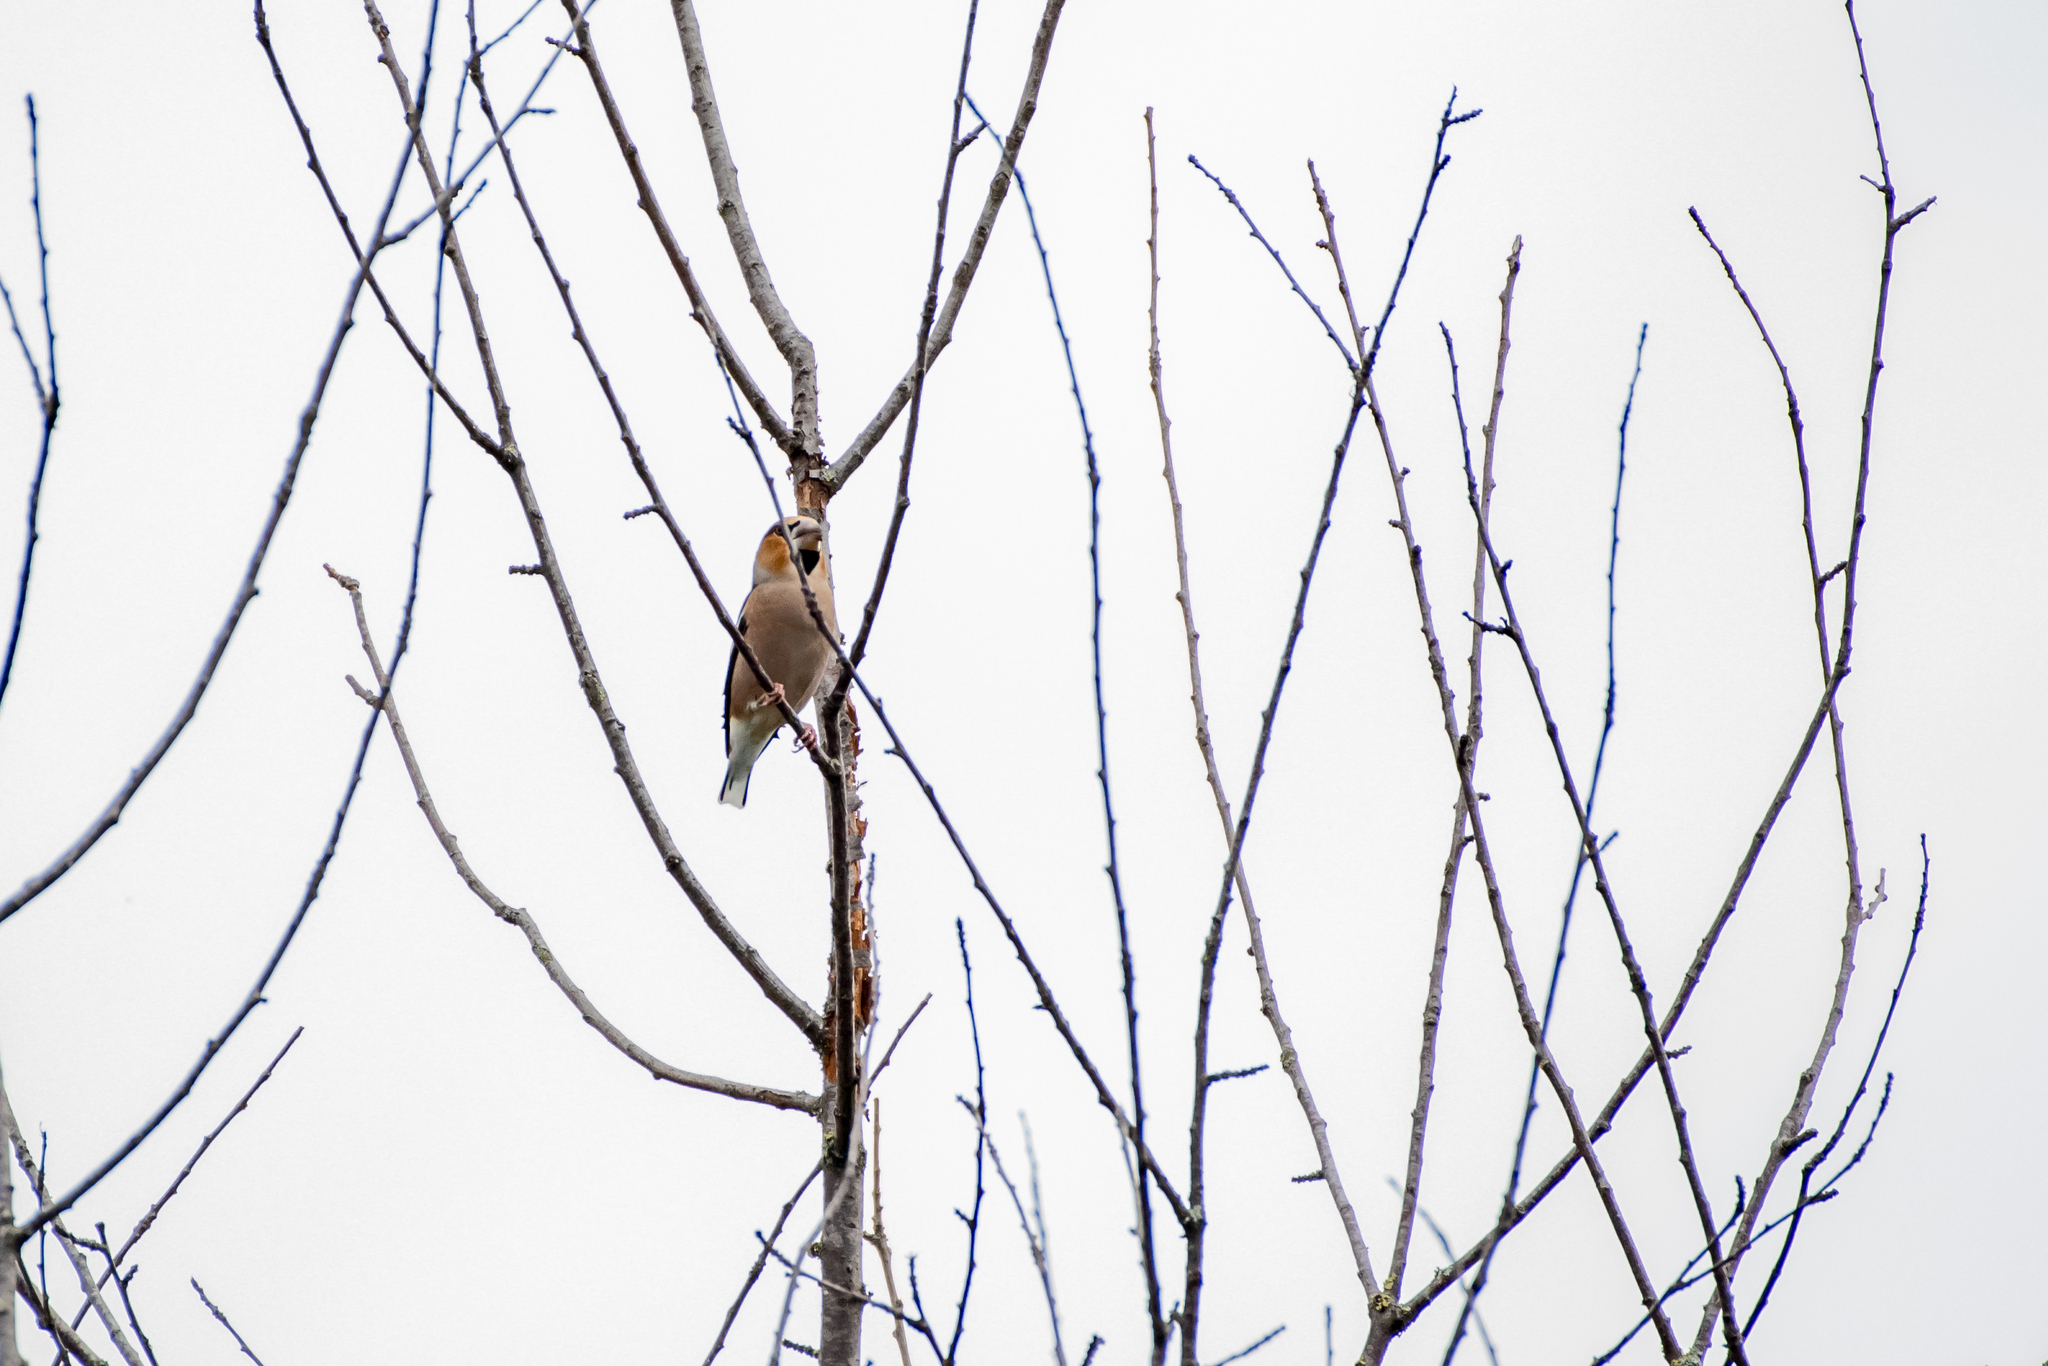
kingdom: Animalia
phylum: Chordata
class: Aves
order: Passeriformes
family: Fringillidae
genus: Coccothraustes
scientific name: Coccothraustes coccothraustes
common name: Hawfinch
